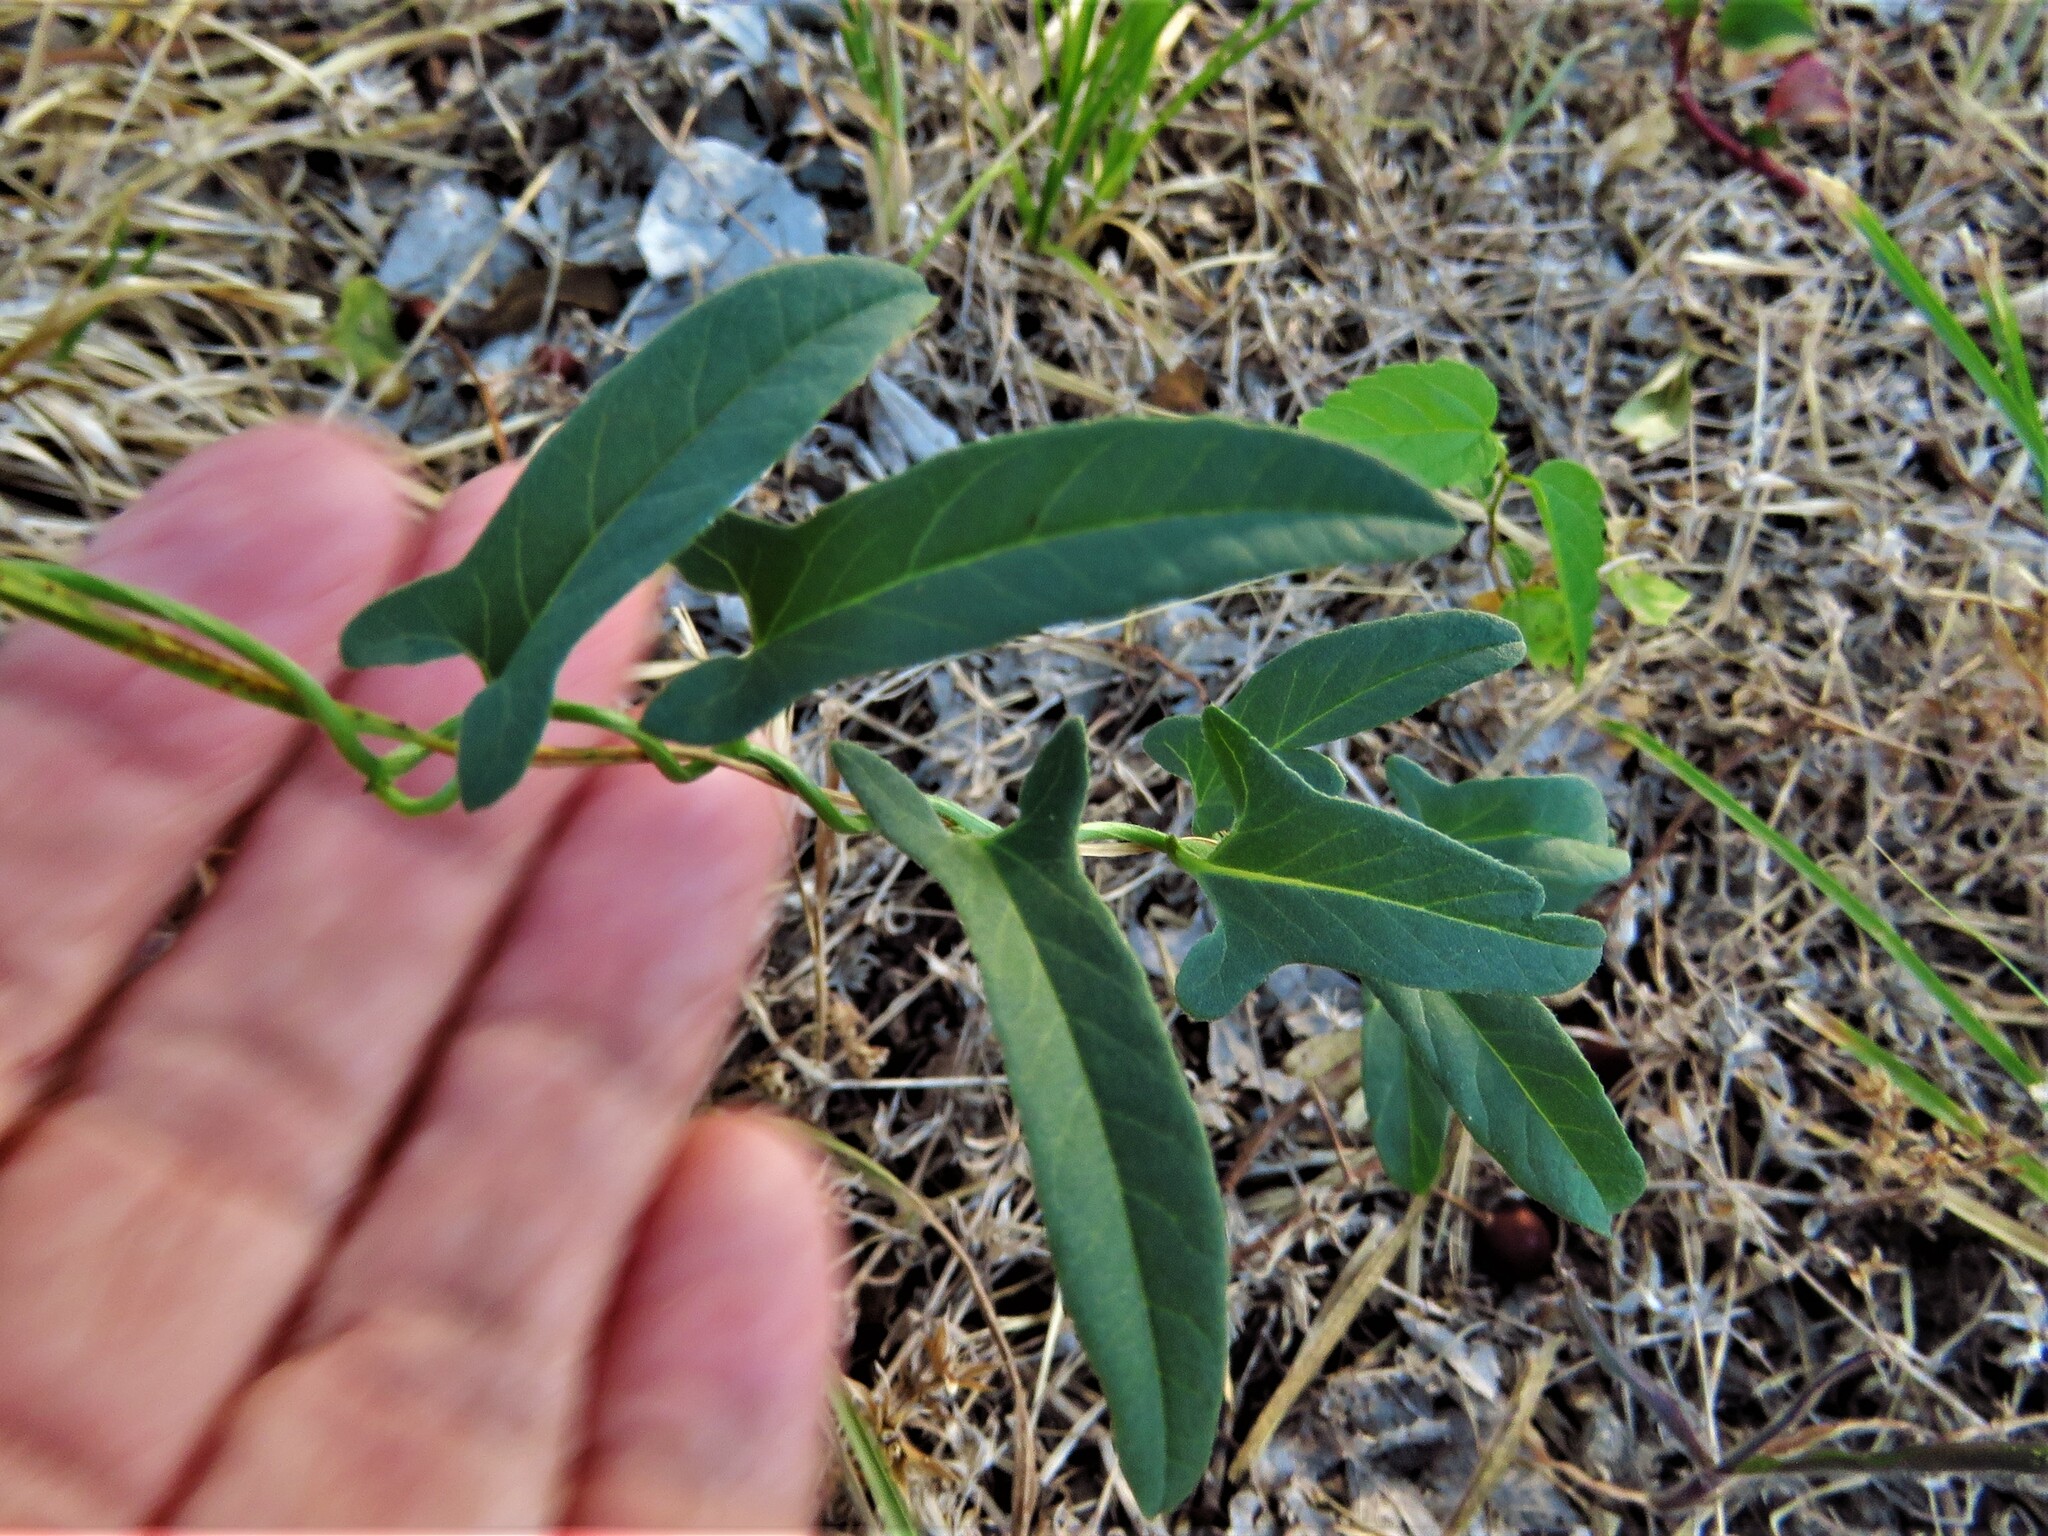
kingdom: Plantae
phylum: Tracheophyta
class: Magnoliopsida
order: Solanales
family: Convolvulaceae
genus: Convolvulus
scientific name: Convolvulus equitans
